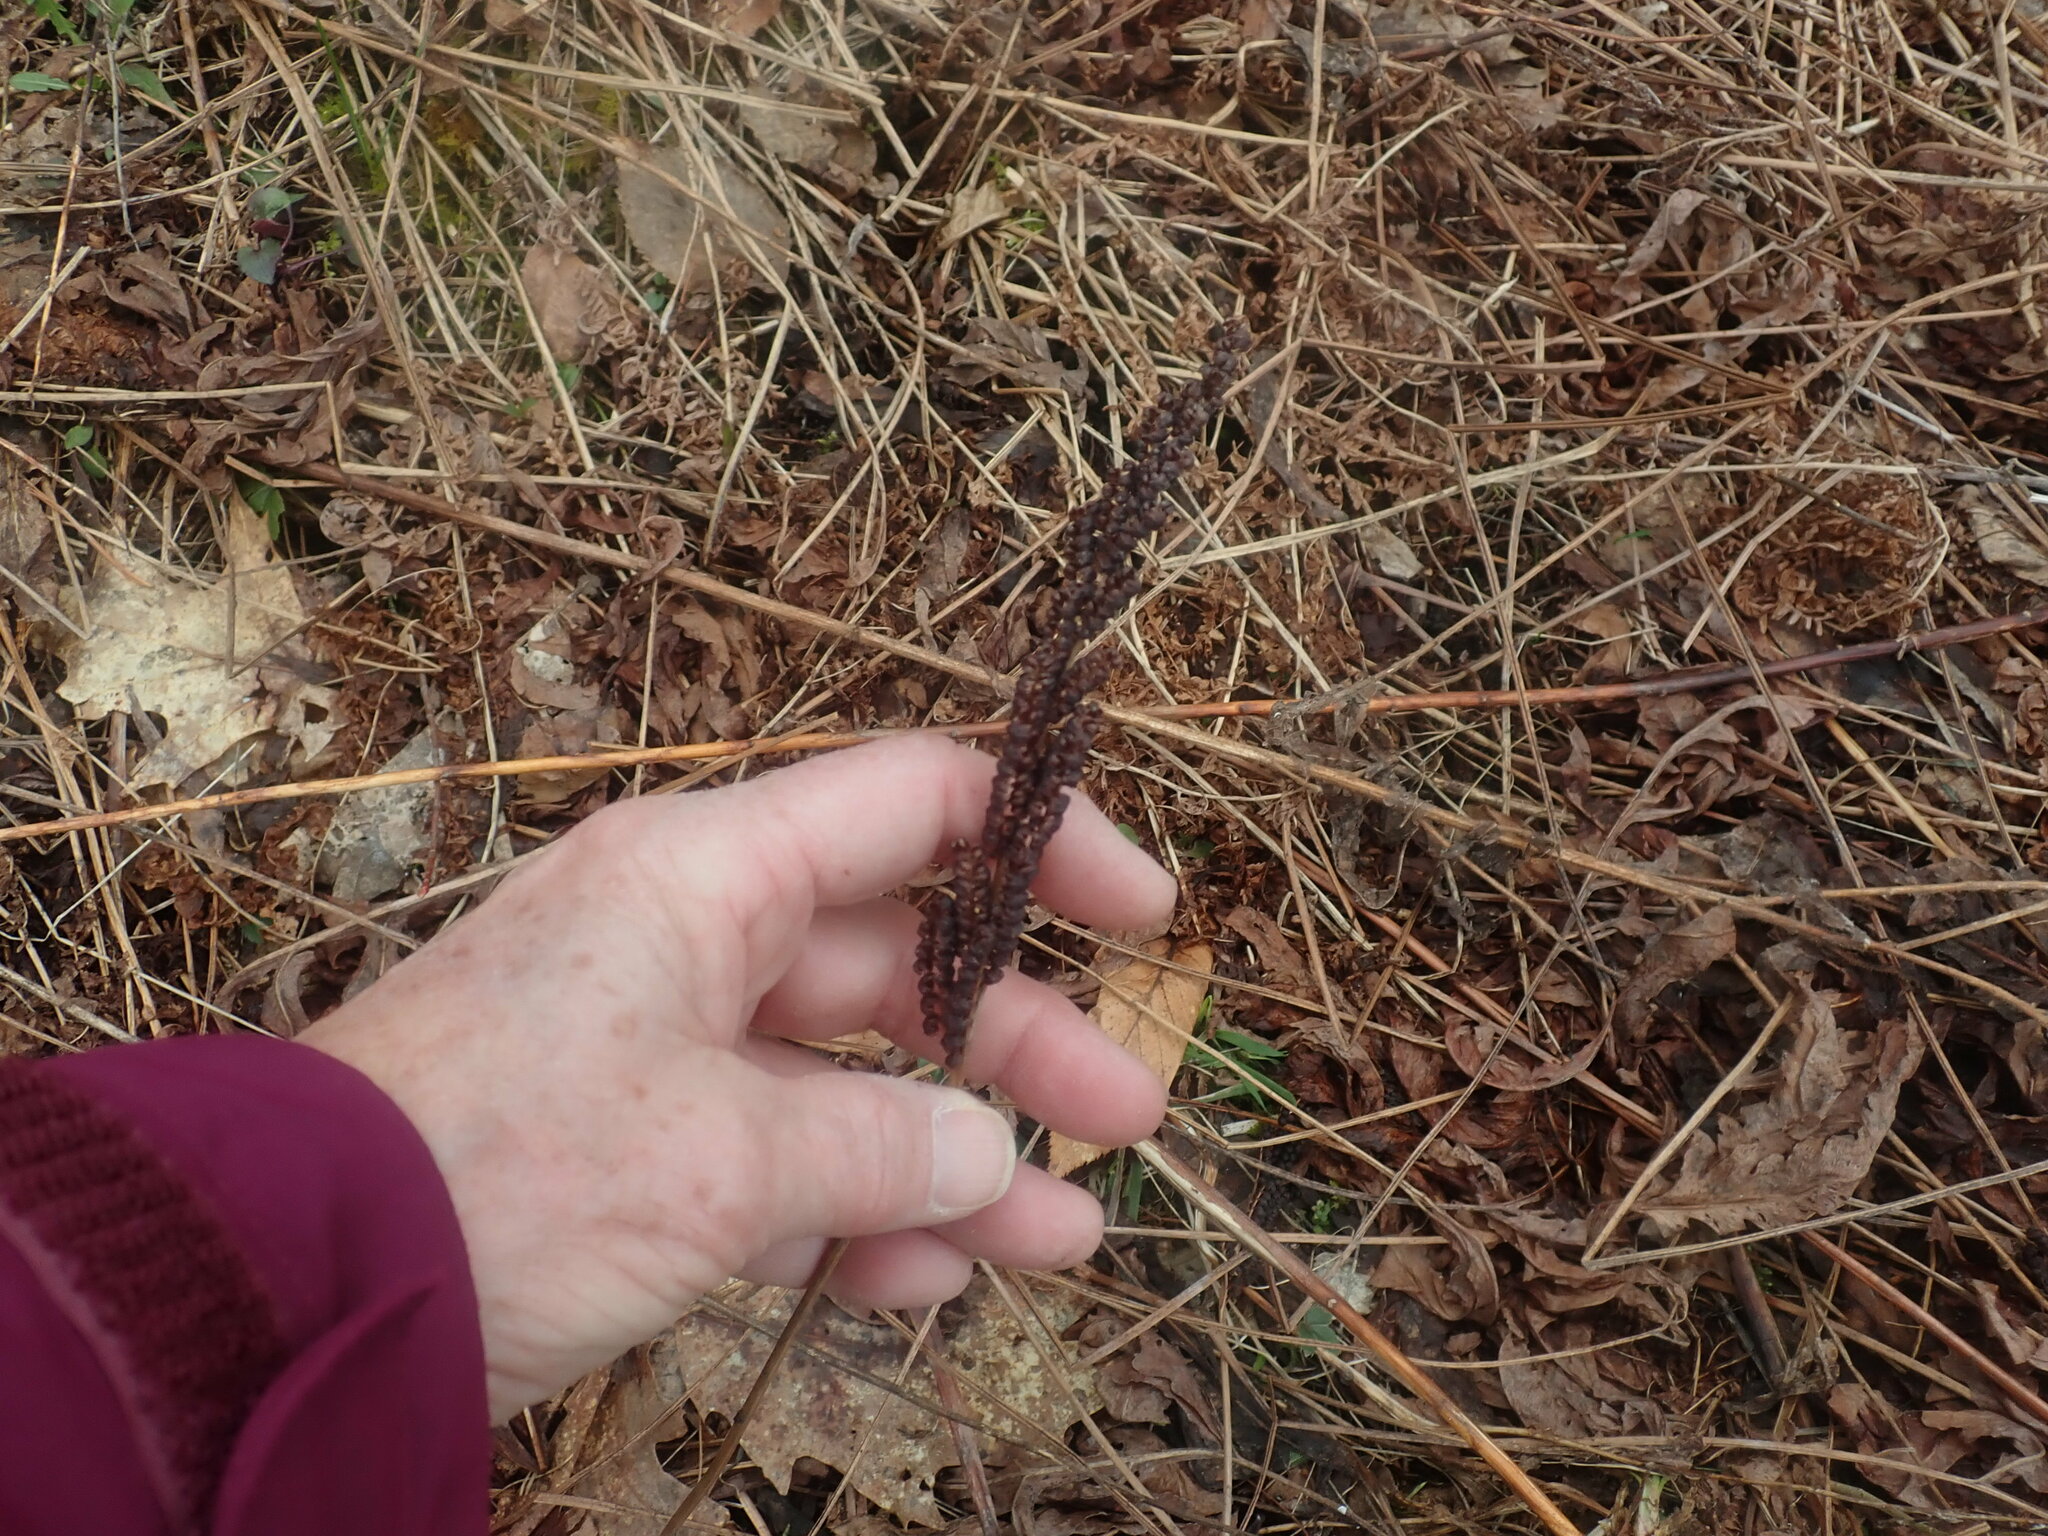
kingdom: Plantae
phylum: Tracheophyta
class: Polypodiopsida
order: Polypodiales
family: Onocleaceae
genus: Onoclea
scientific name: Onoclea sensibilis
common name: Sensitive fern
